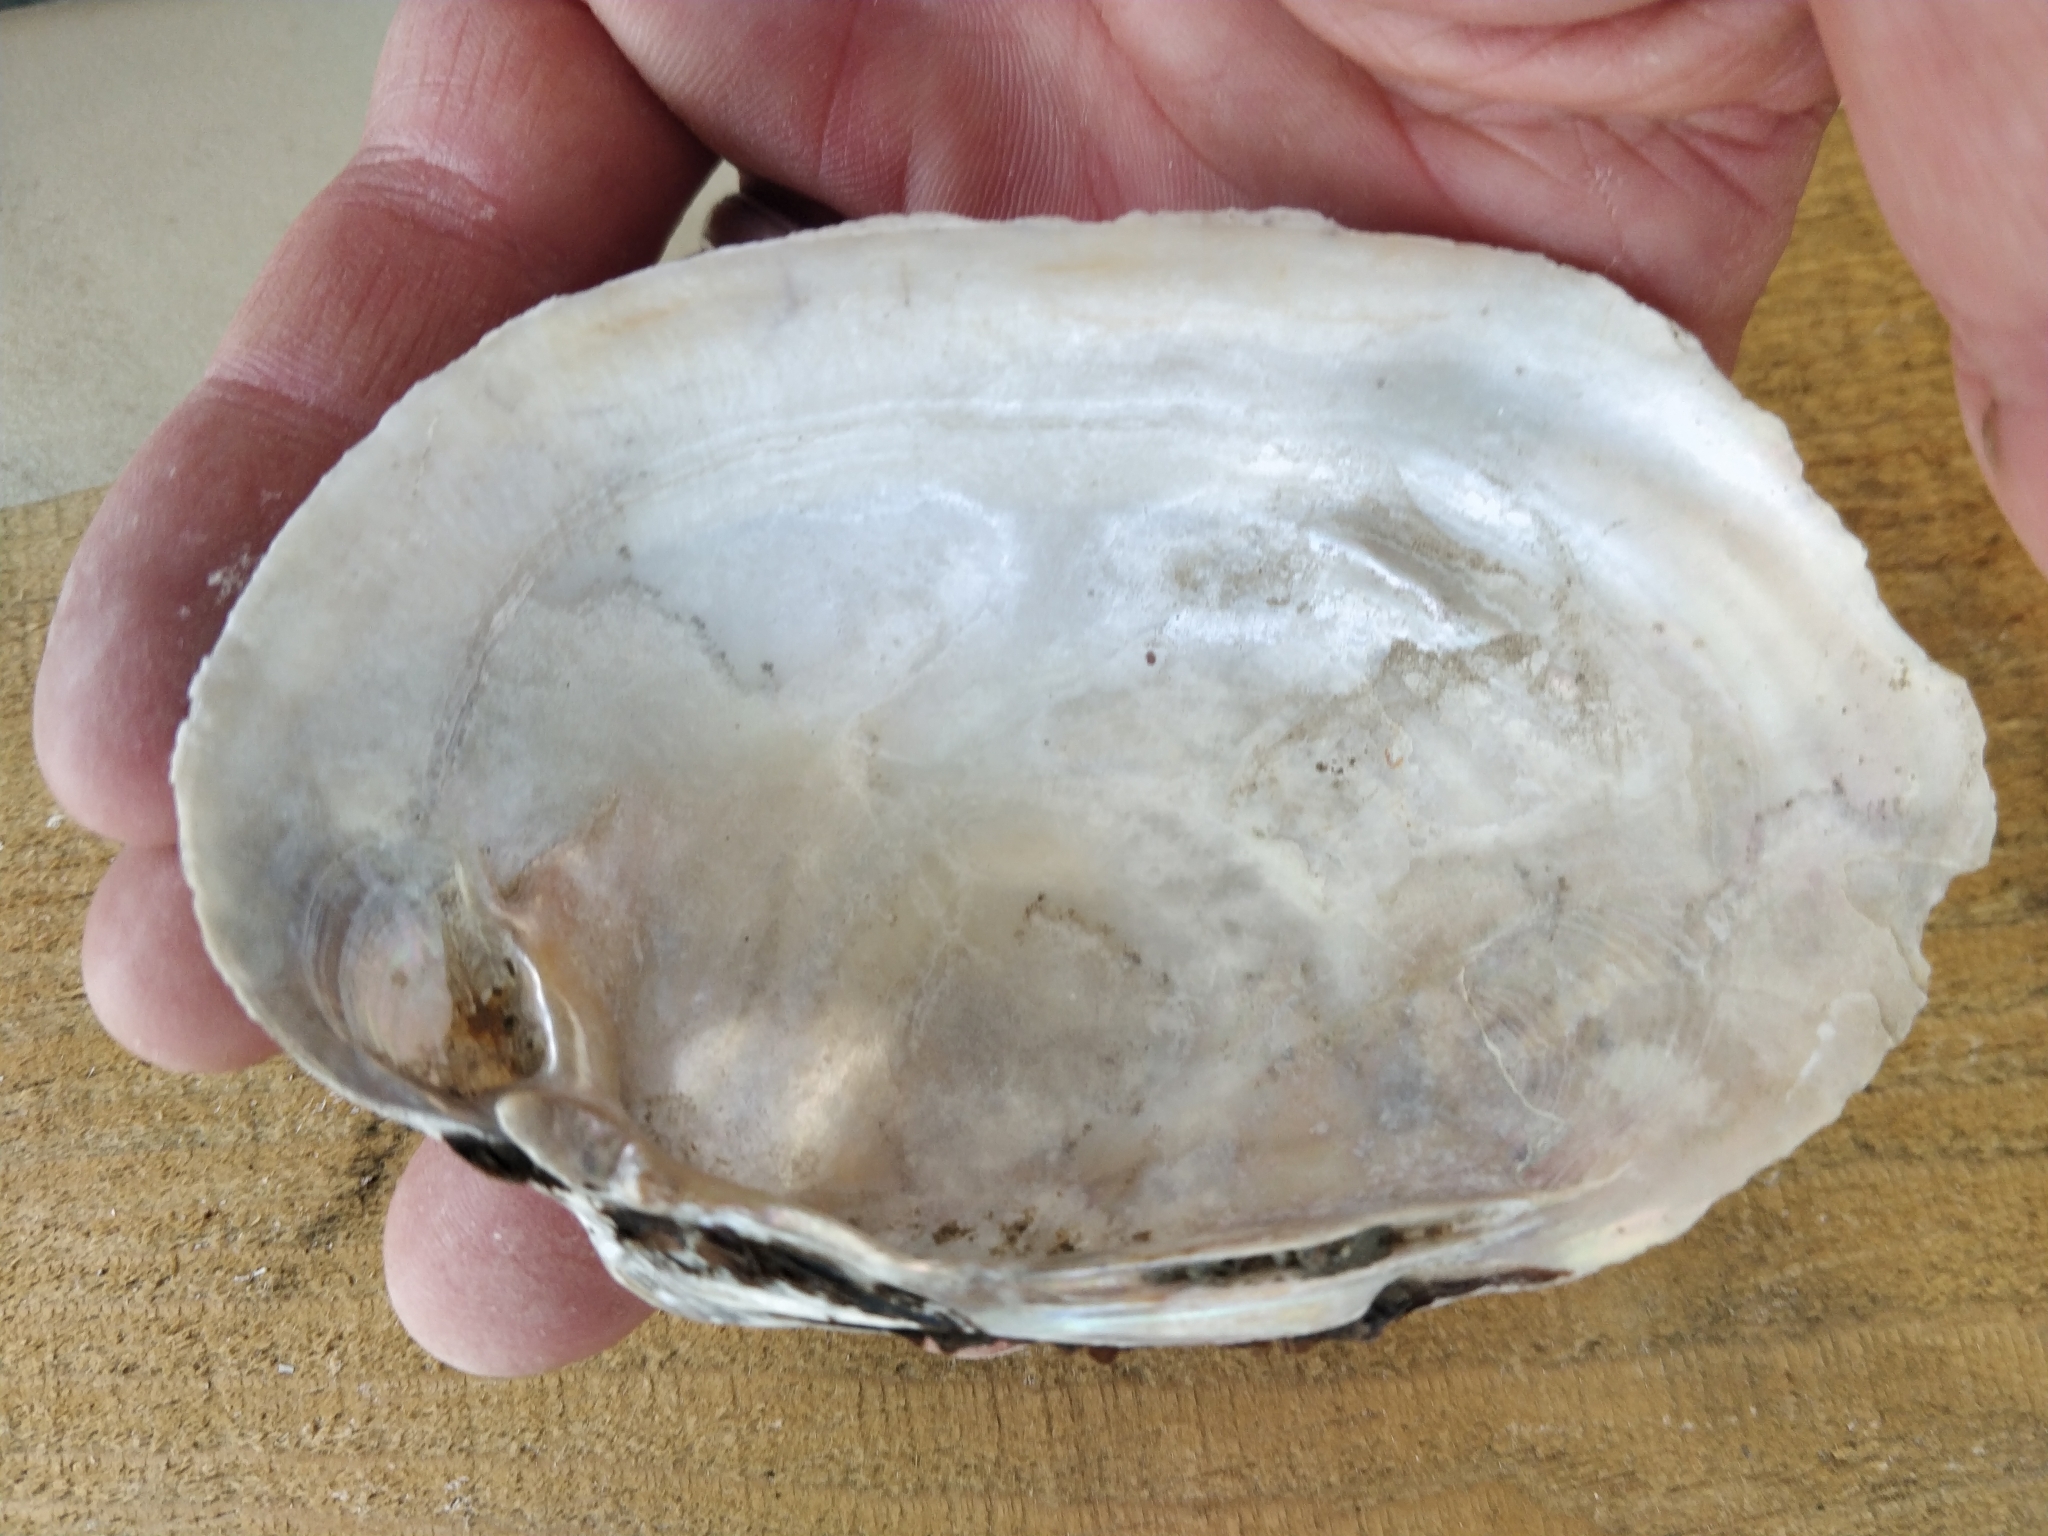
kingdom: Animalia
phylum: Mollusca
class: Bivalvia
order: Unionida
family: Unionidae
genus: Lampsilis
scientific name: Lampsilis cardium
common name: Plain pocketbook
